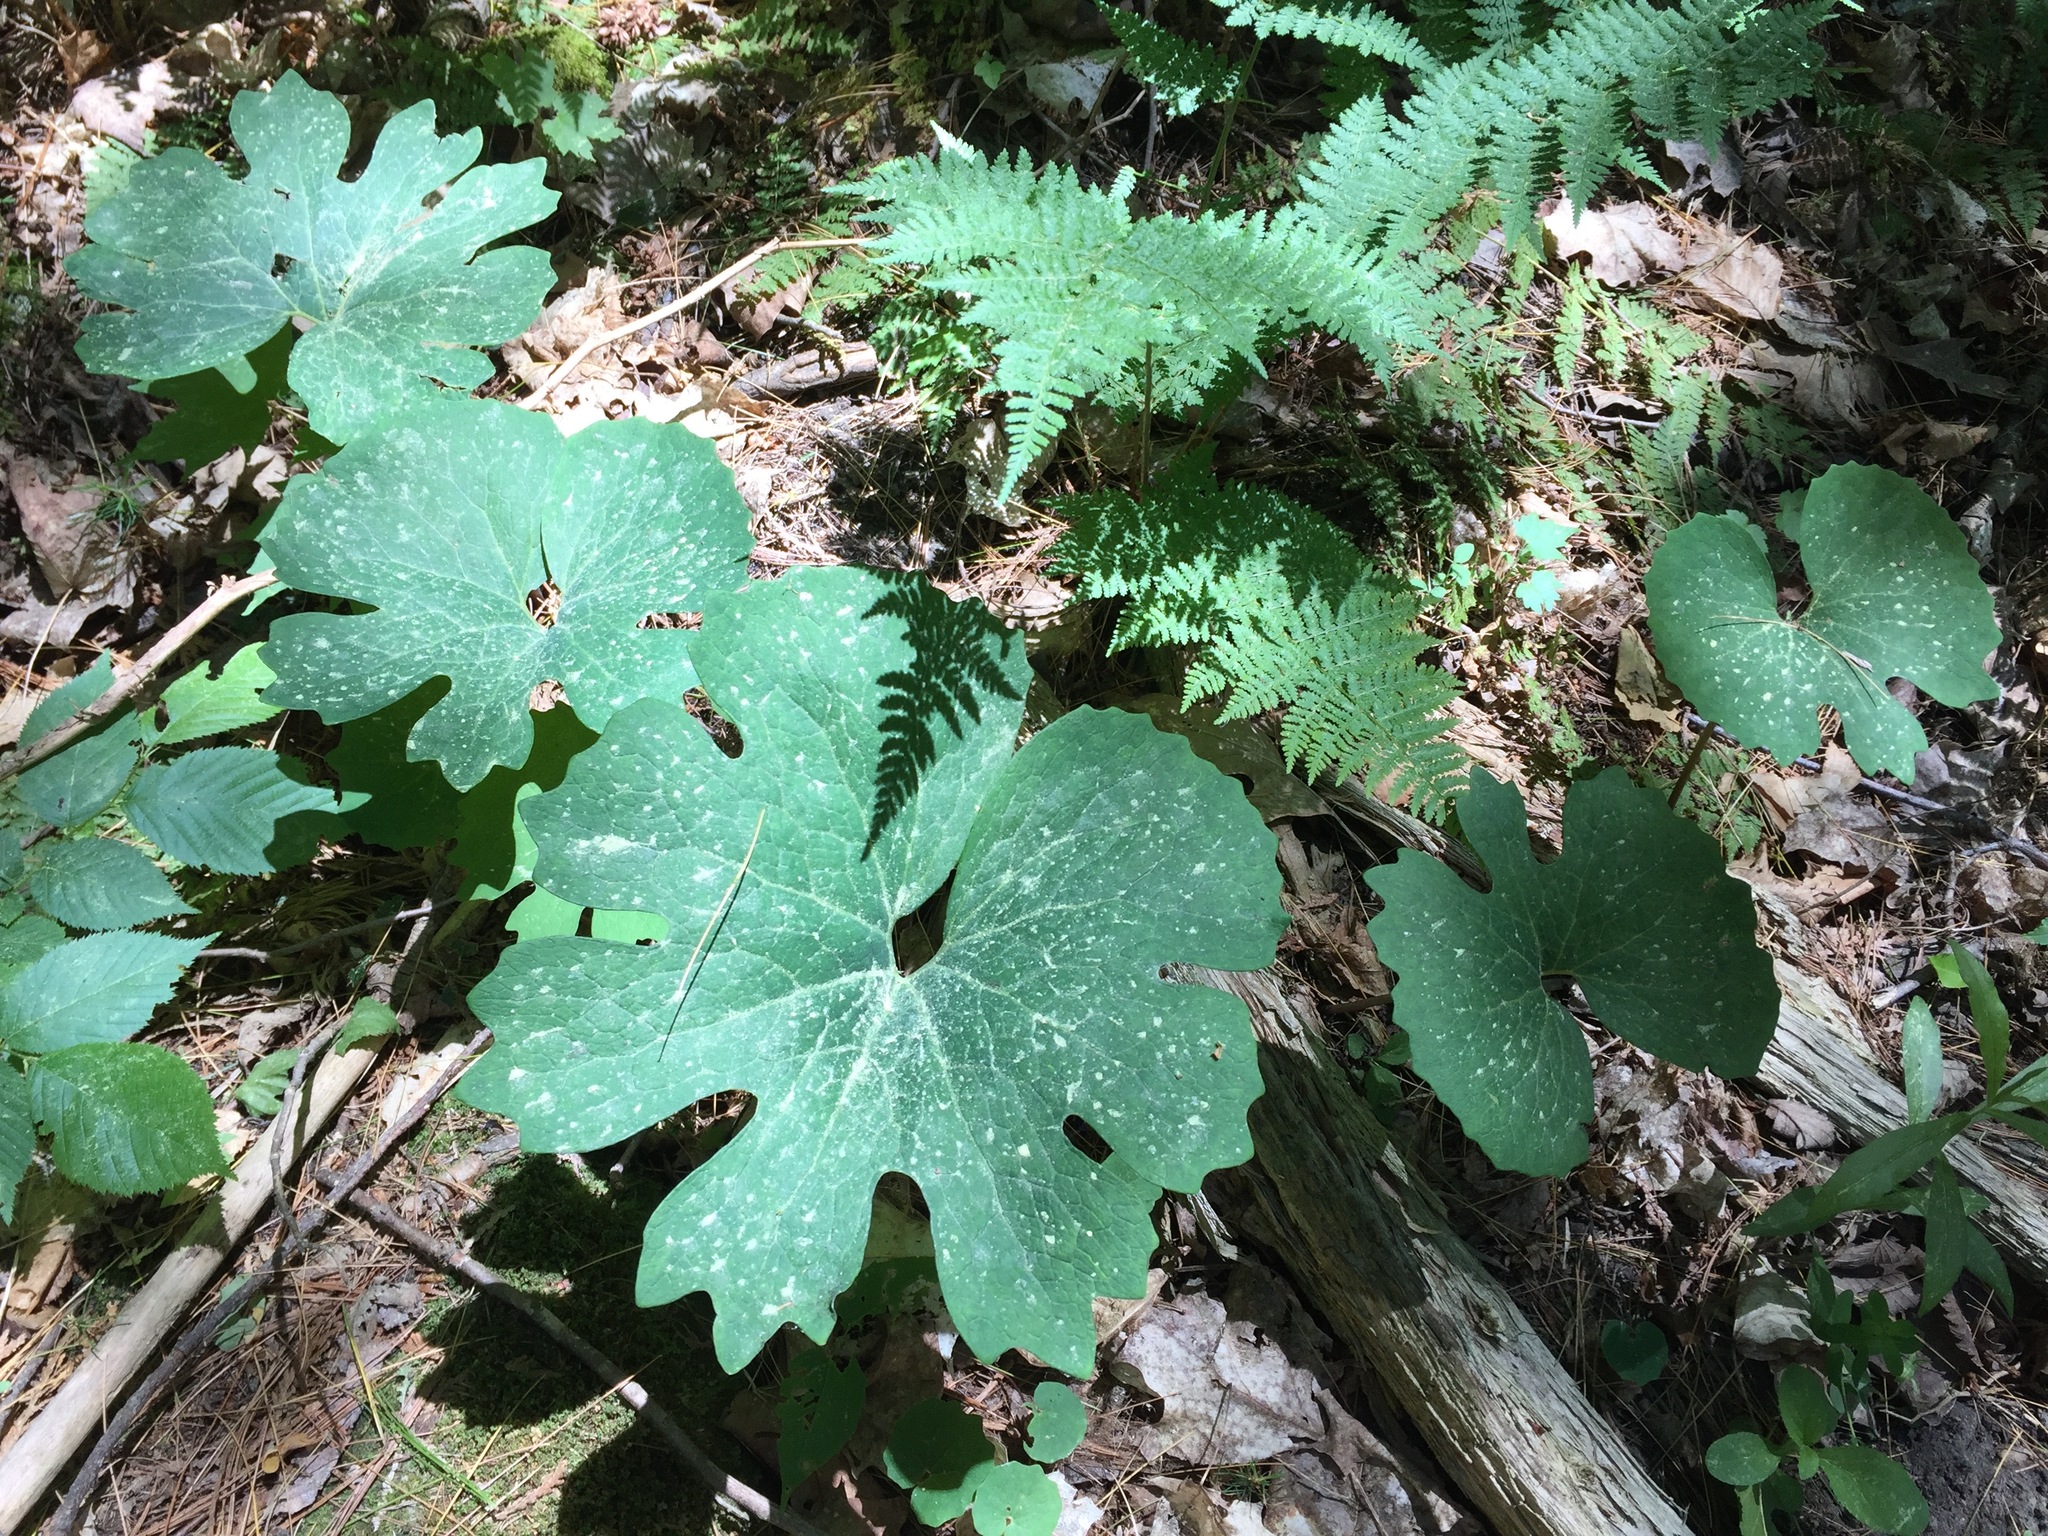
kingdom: Plantae
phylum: Tracheophyta
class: Magnoliopsida
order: Ranunculales
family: Papaveraceae
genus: Sanguinaria
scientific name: Sanguinaria canadensis
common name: Bloodroot
